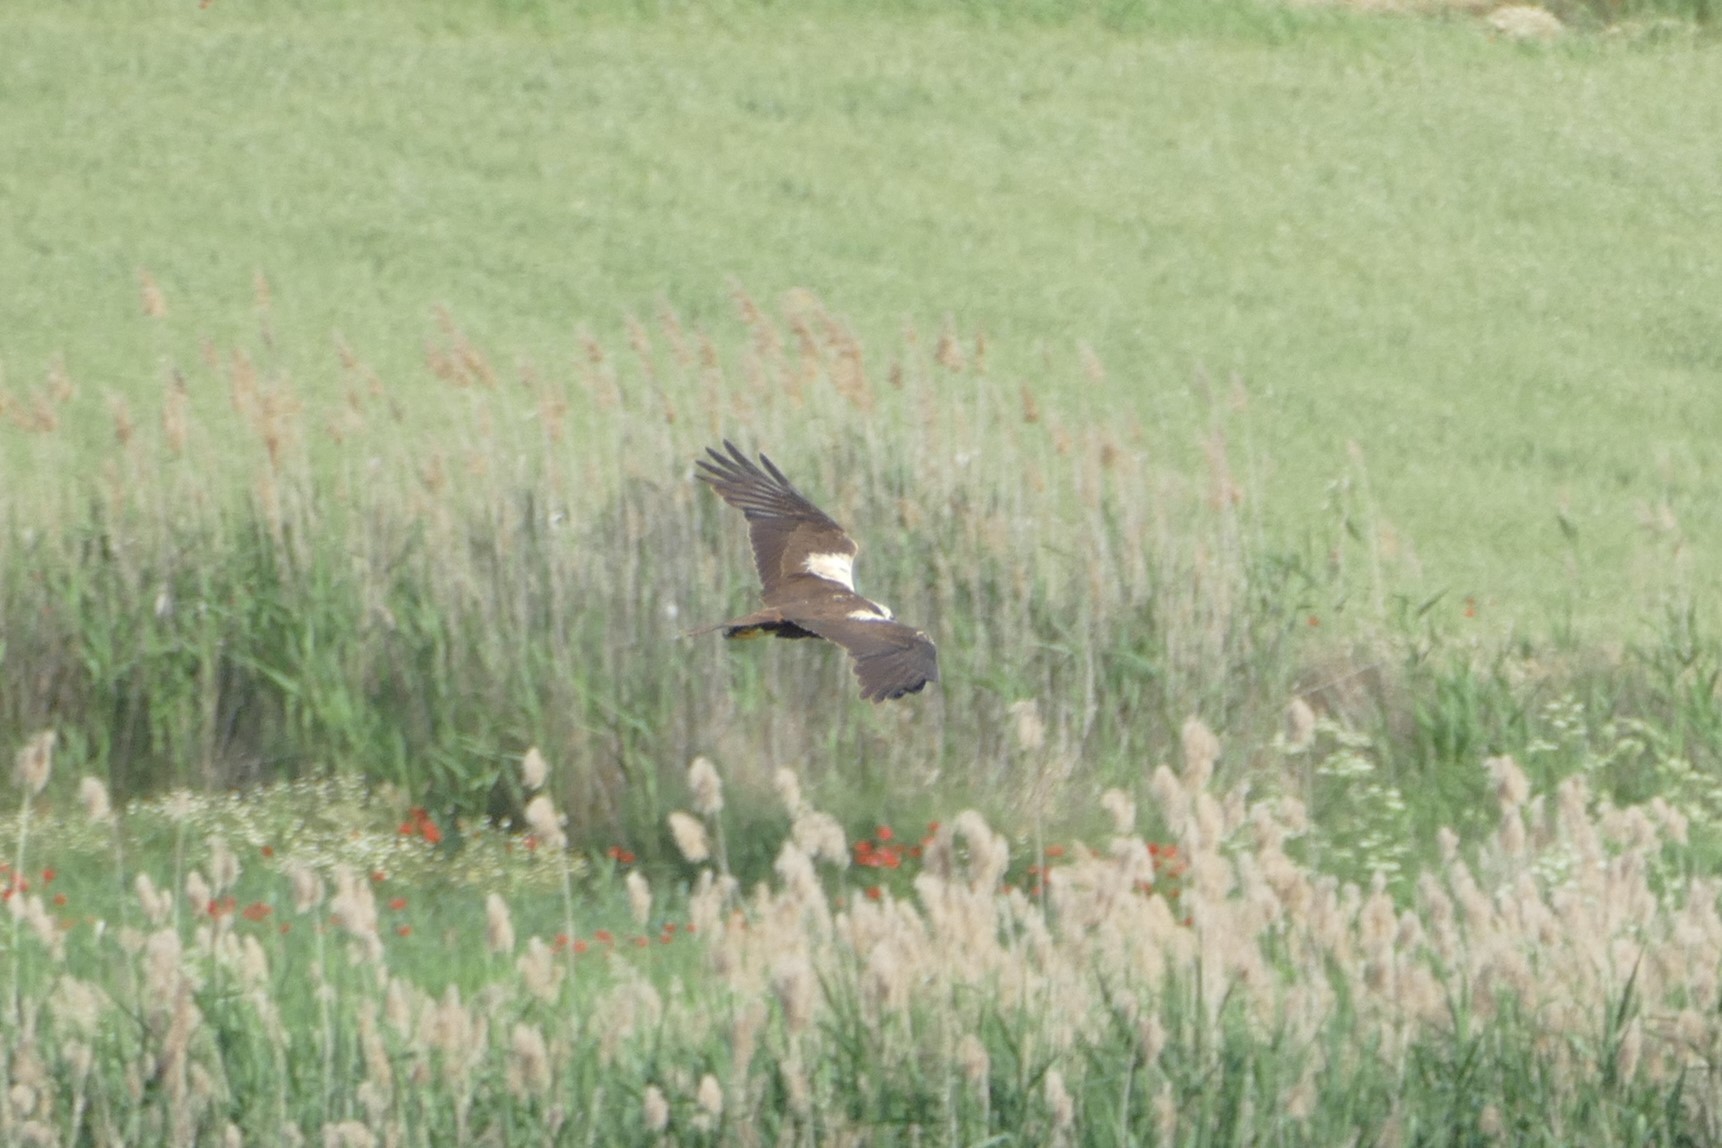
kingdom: Animalia
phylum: Chordata
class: Aves
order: Accipitriformes
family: Accipitridae
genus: Circus
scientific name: Circus aeruginosus
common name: Western marsh harrier
